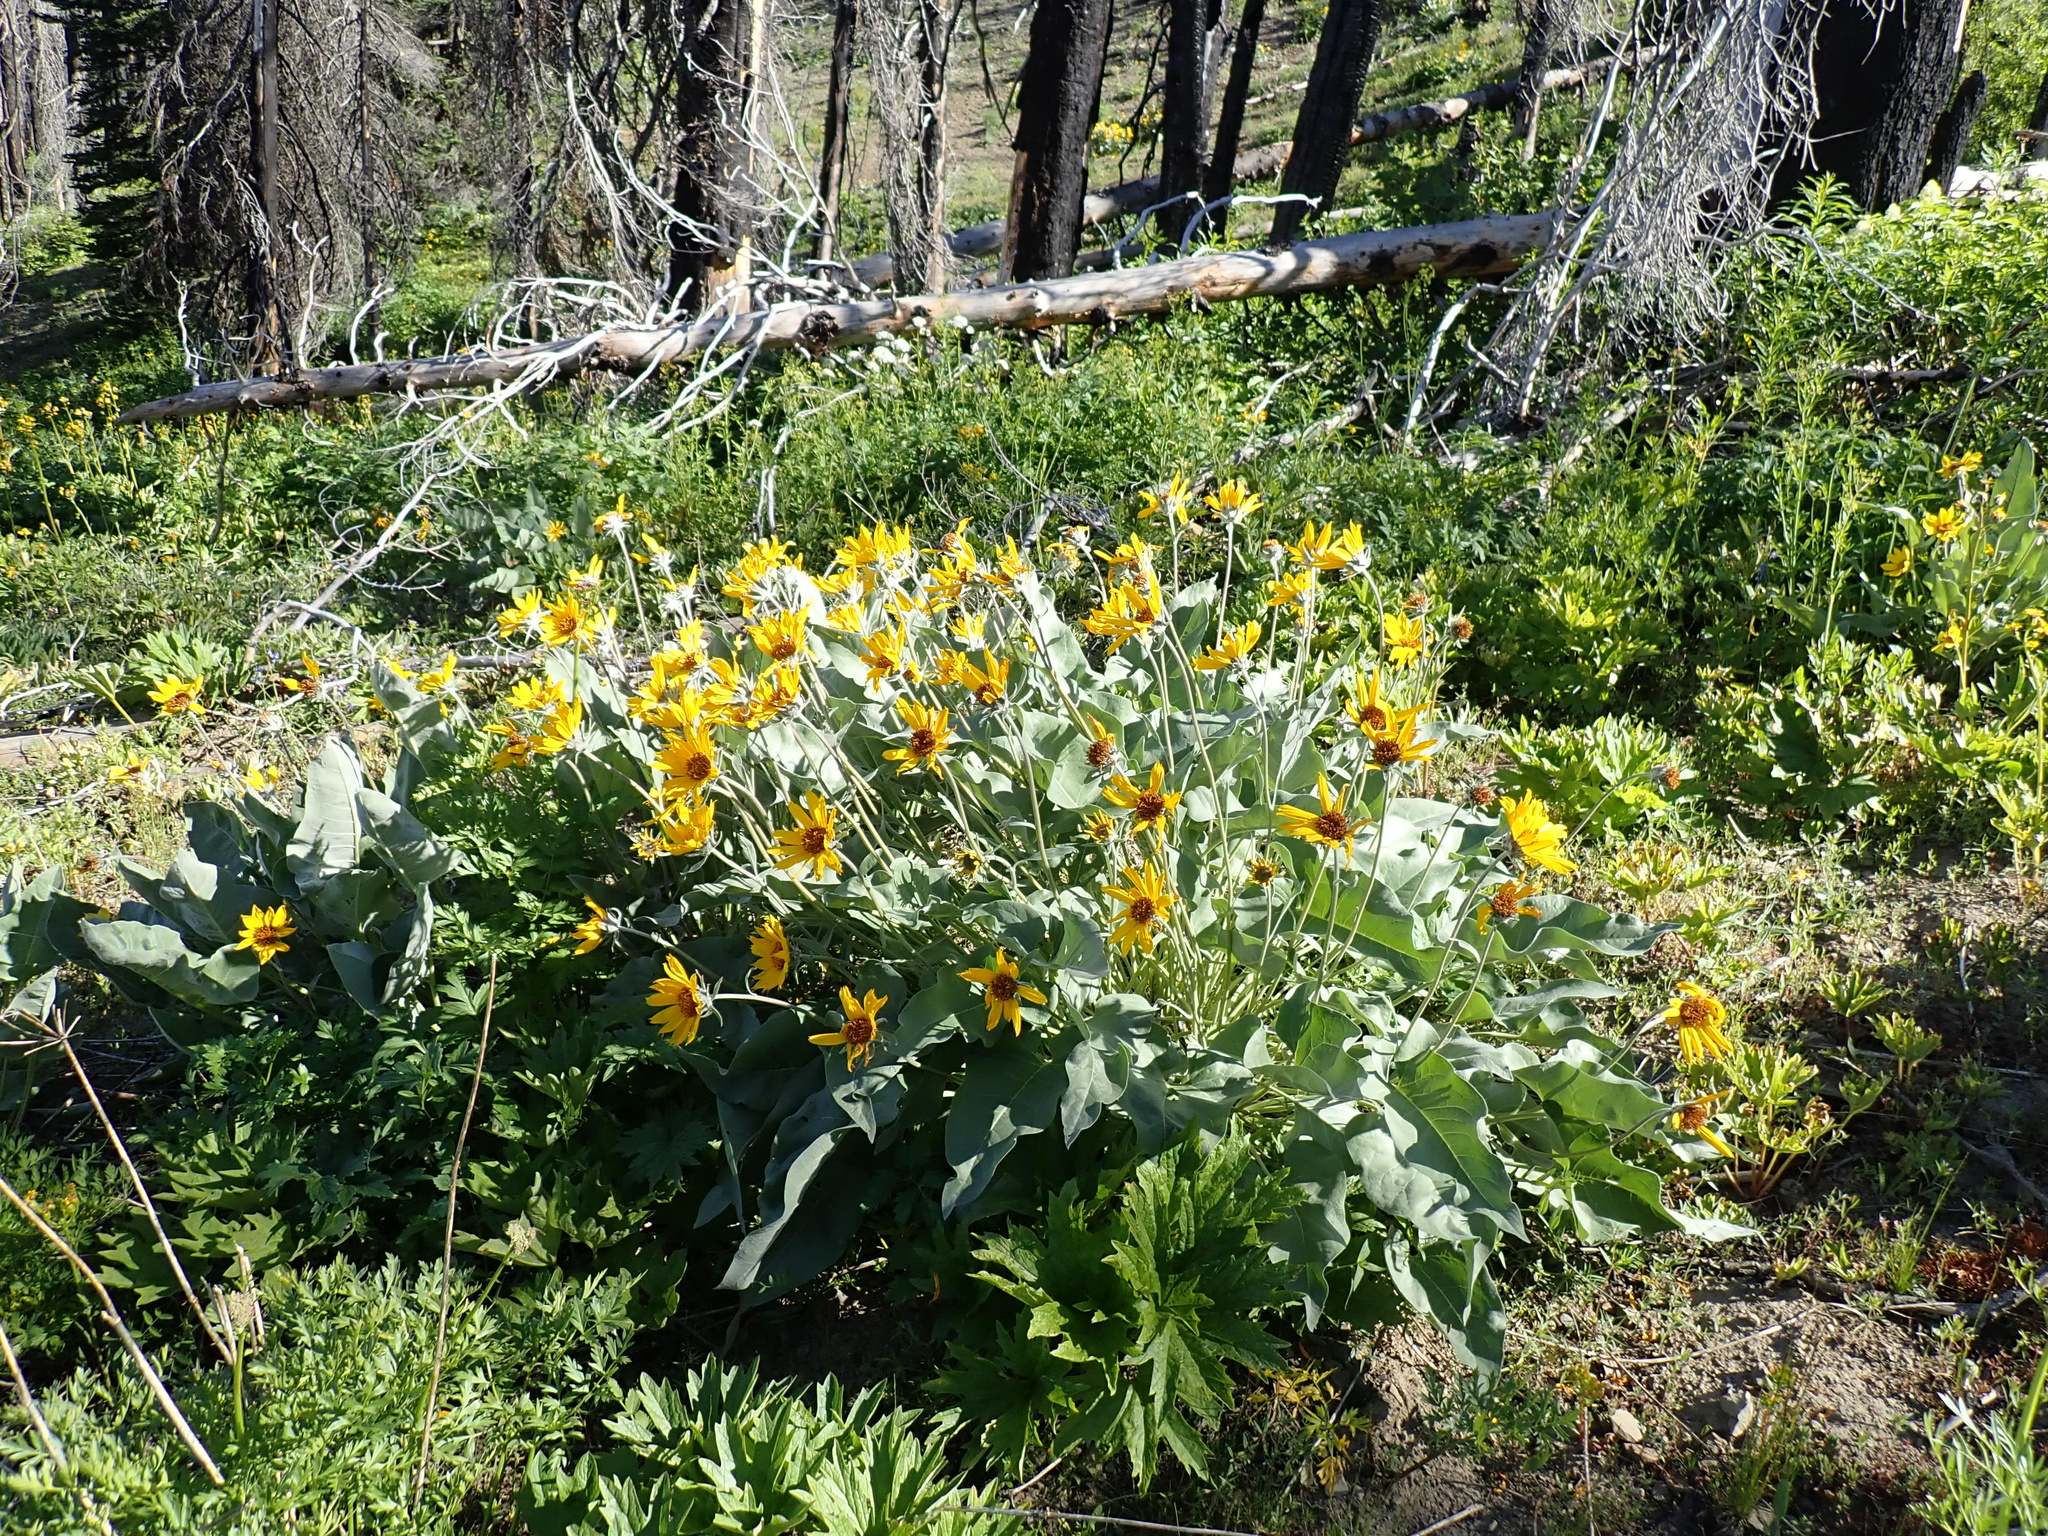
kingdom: Plantae
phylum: Tracheophyta
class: Magnoliopsida
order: Asterales
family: Asteraceae
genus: Wyethia
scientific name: Wyethia sagittata
